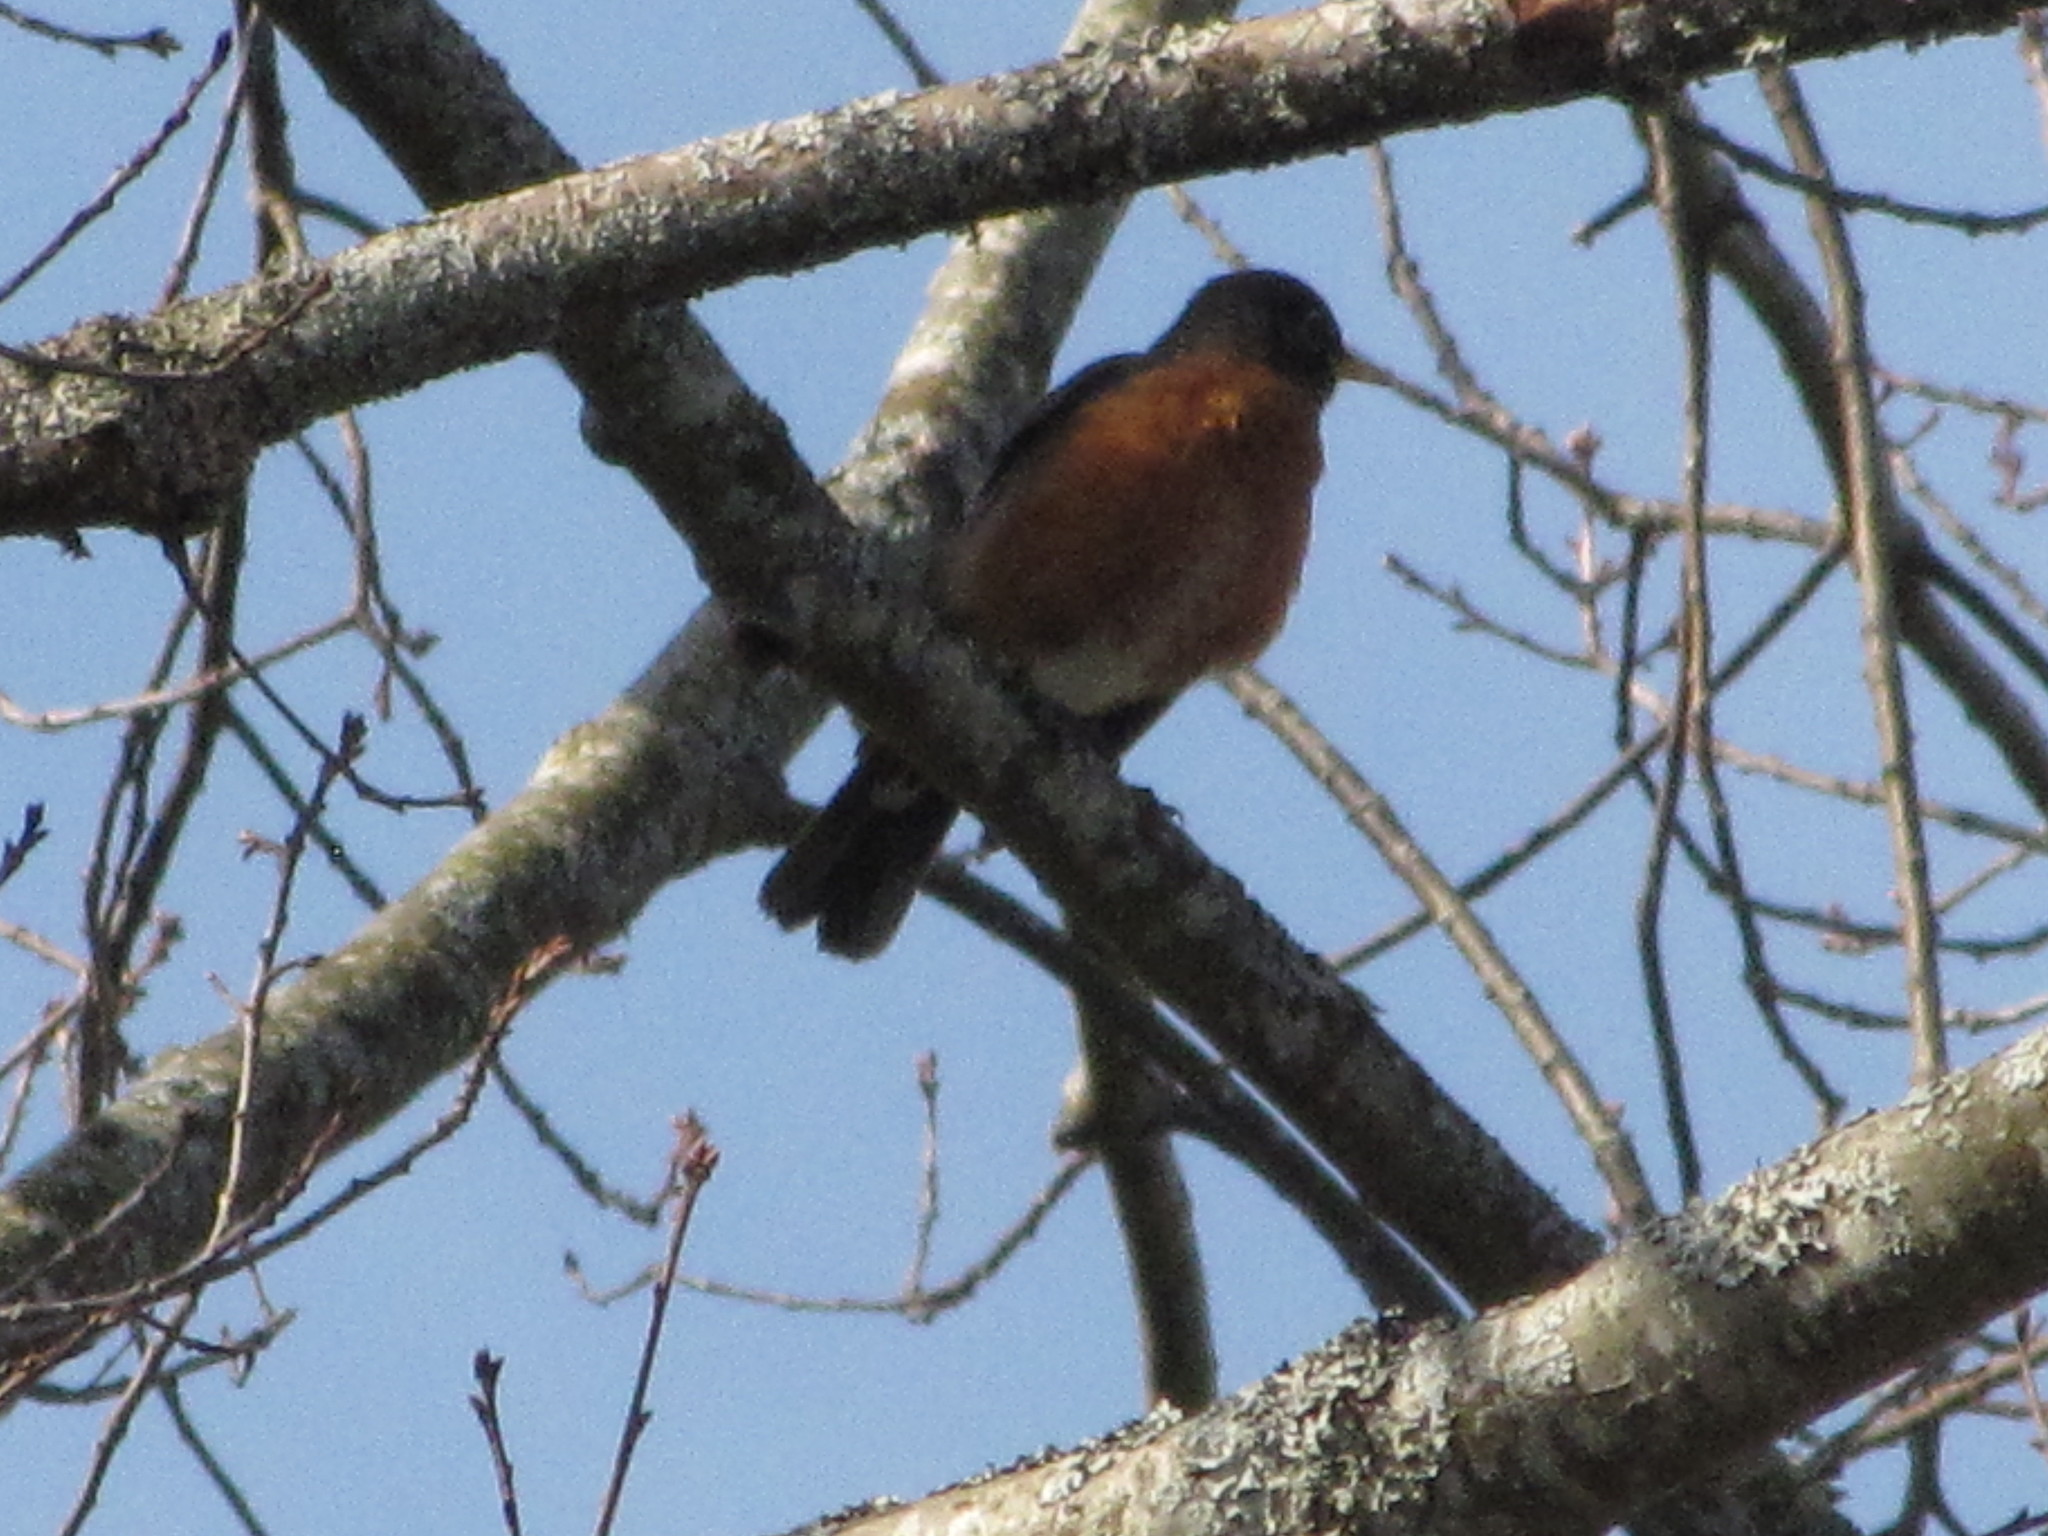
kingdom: Animalia
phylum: Chordata
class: Aves
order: Passeriformes
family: Turdidae
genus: Turdus
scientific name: Turdus migratorius
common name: American robin
